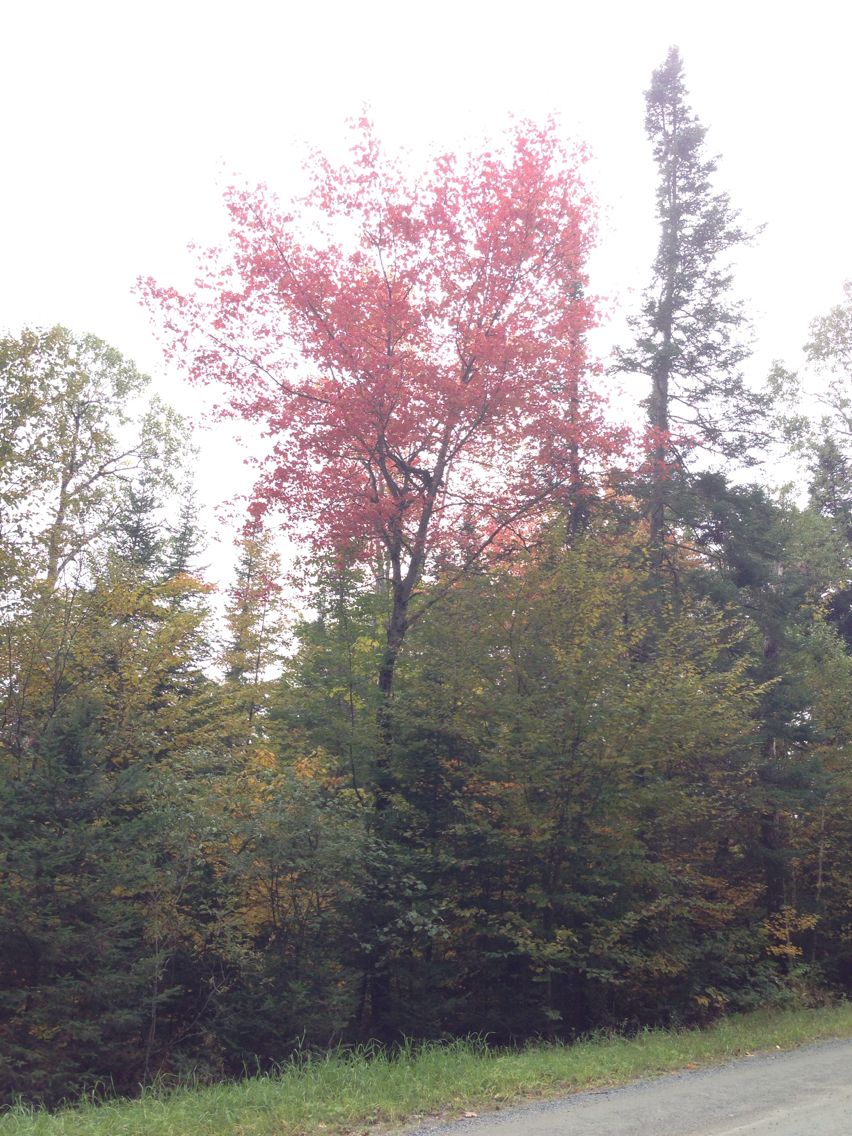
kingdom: Plantae
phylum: Tracheophyta
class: Magnoliopsida
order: Sapindales
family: Sapindaceae
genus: Acer
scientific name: Acer rubrum
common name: Red maple
